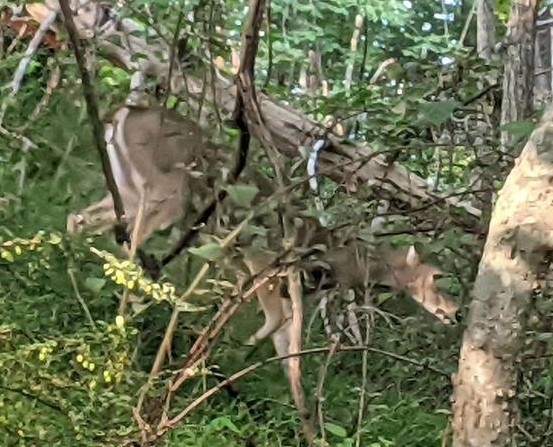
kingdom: Animalia
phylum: Chordata
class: Mammalia
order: Artiodactyla
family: Cervidae
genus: Odocoileus
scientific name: Odocoileus virginianus
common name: White-tailed deer
